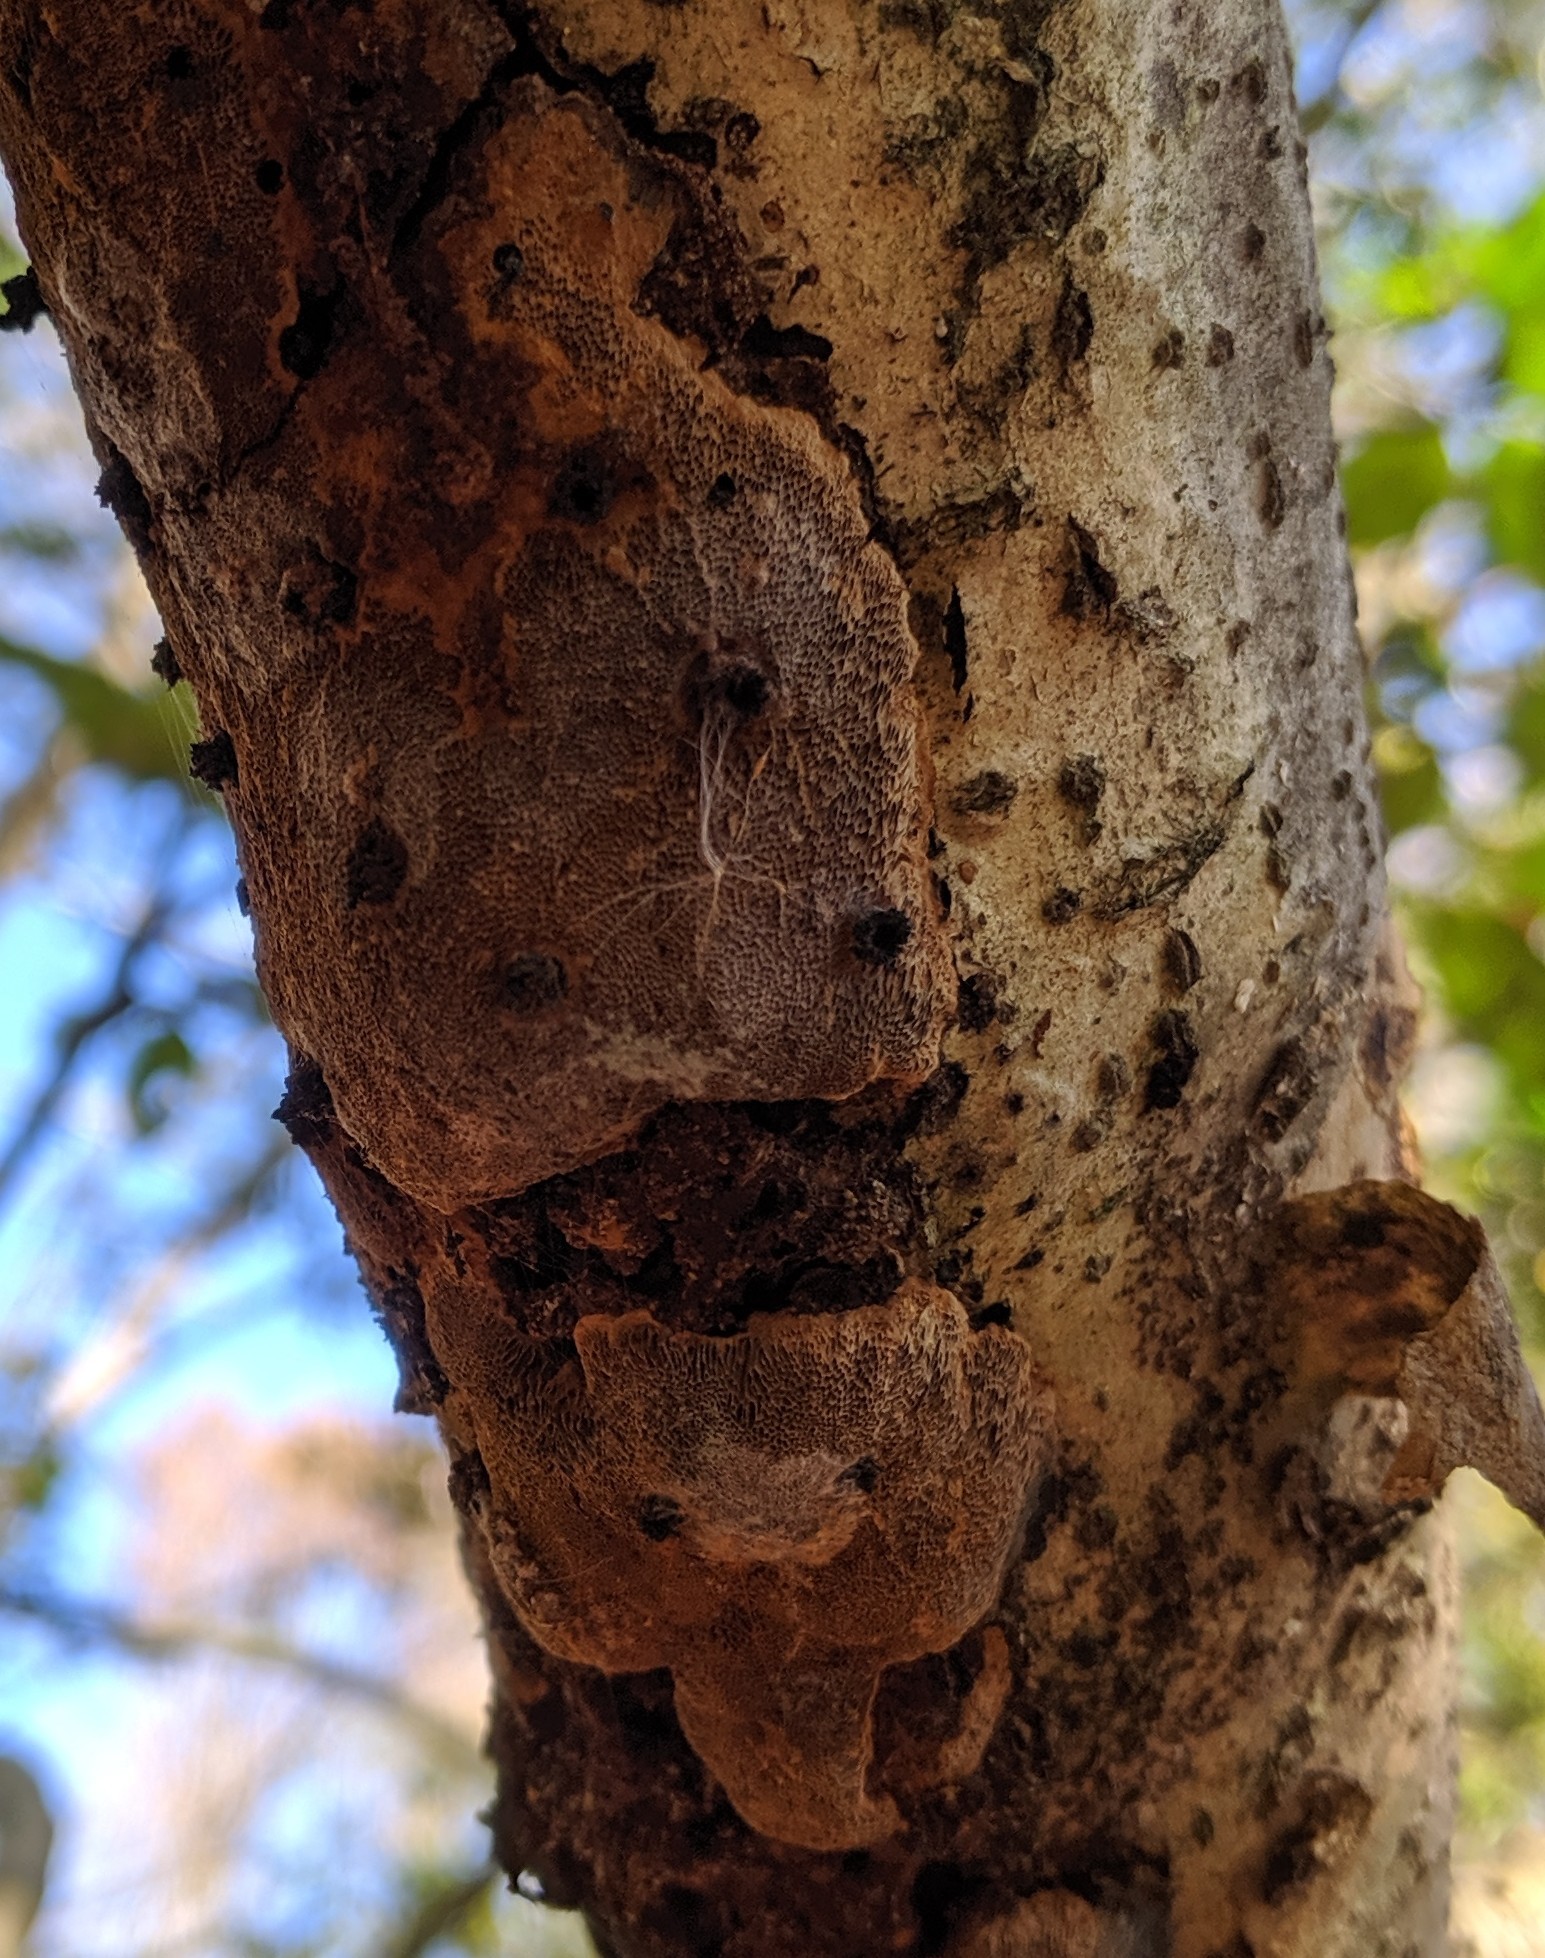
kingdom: Fungi
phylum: Basidiomycota
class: Agaricomycetes
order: Hymenochaetales
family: Hymenochaetaceae
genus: Fulvifomes
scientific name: Fulvifomes inermis
